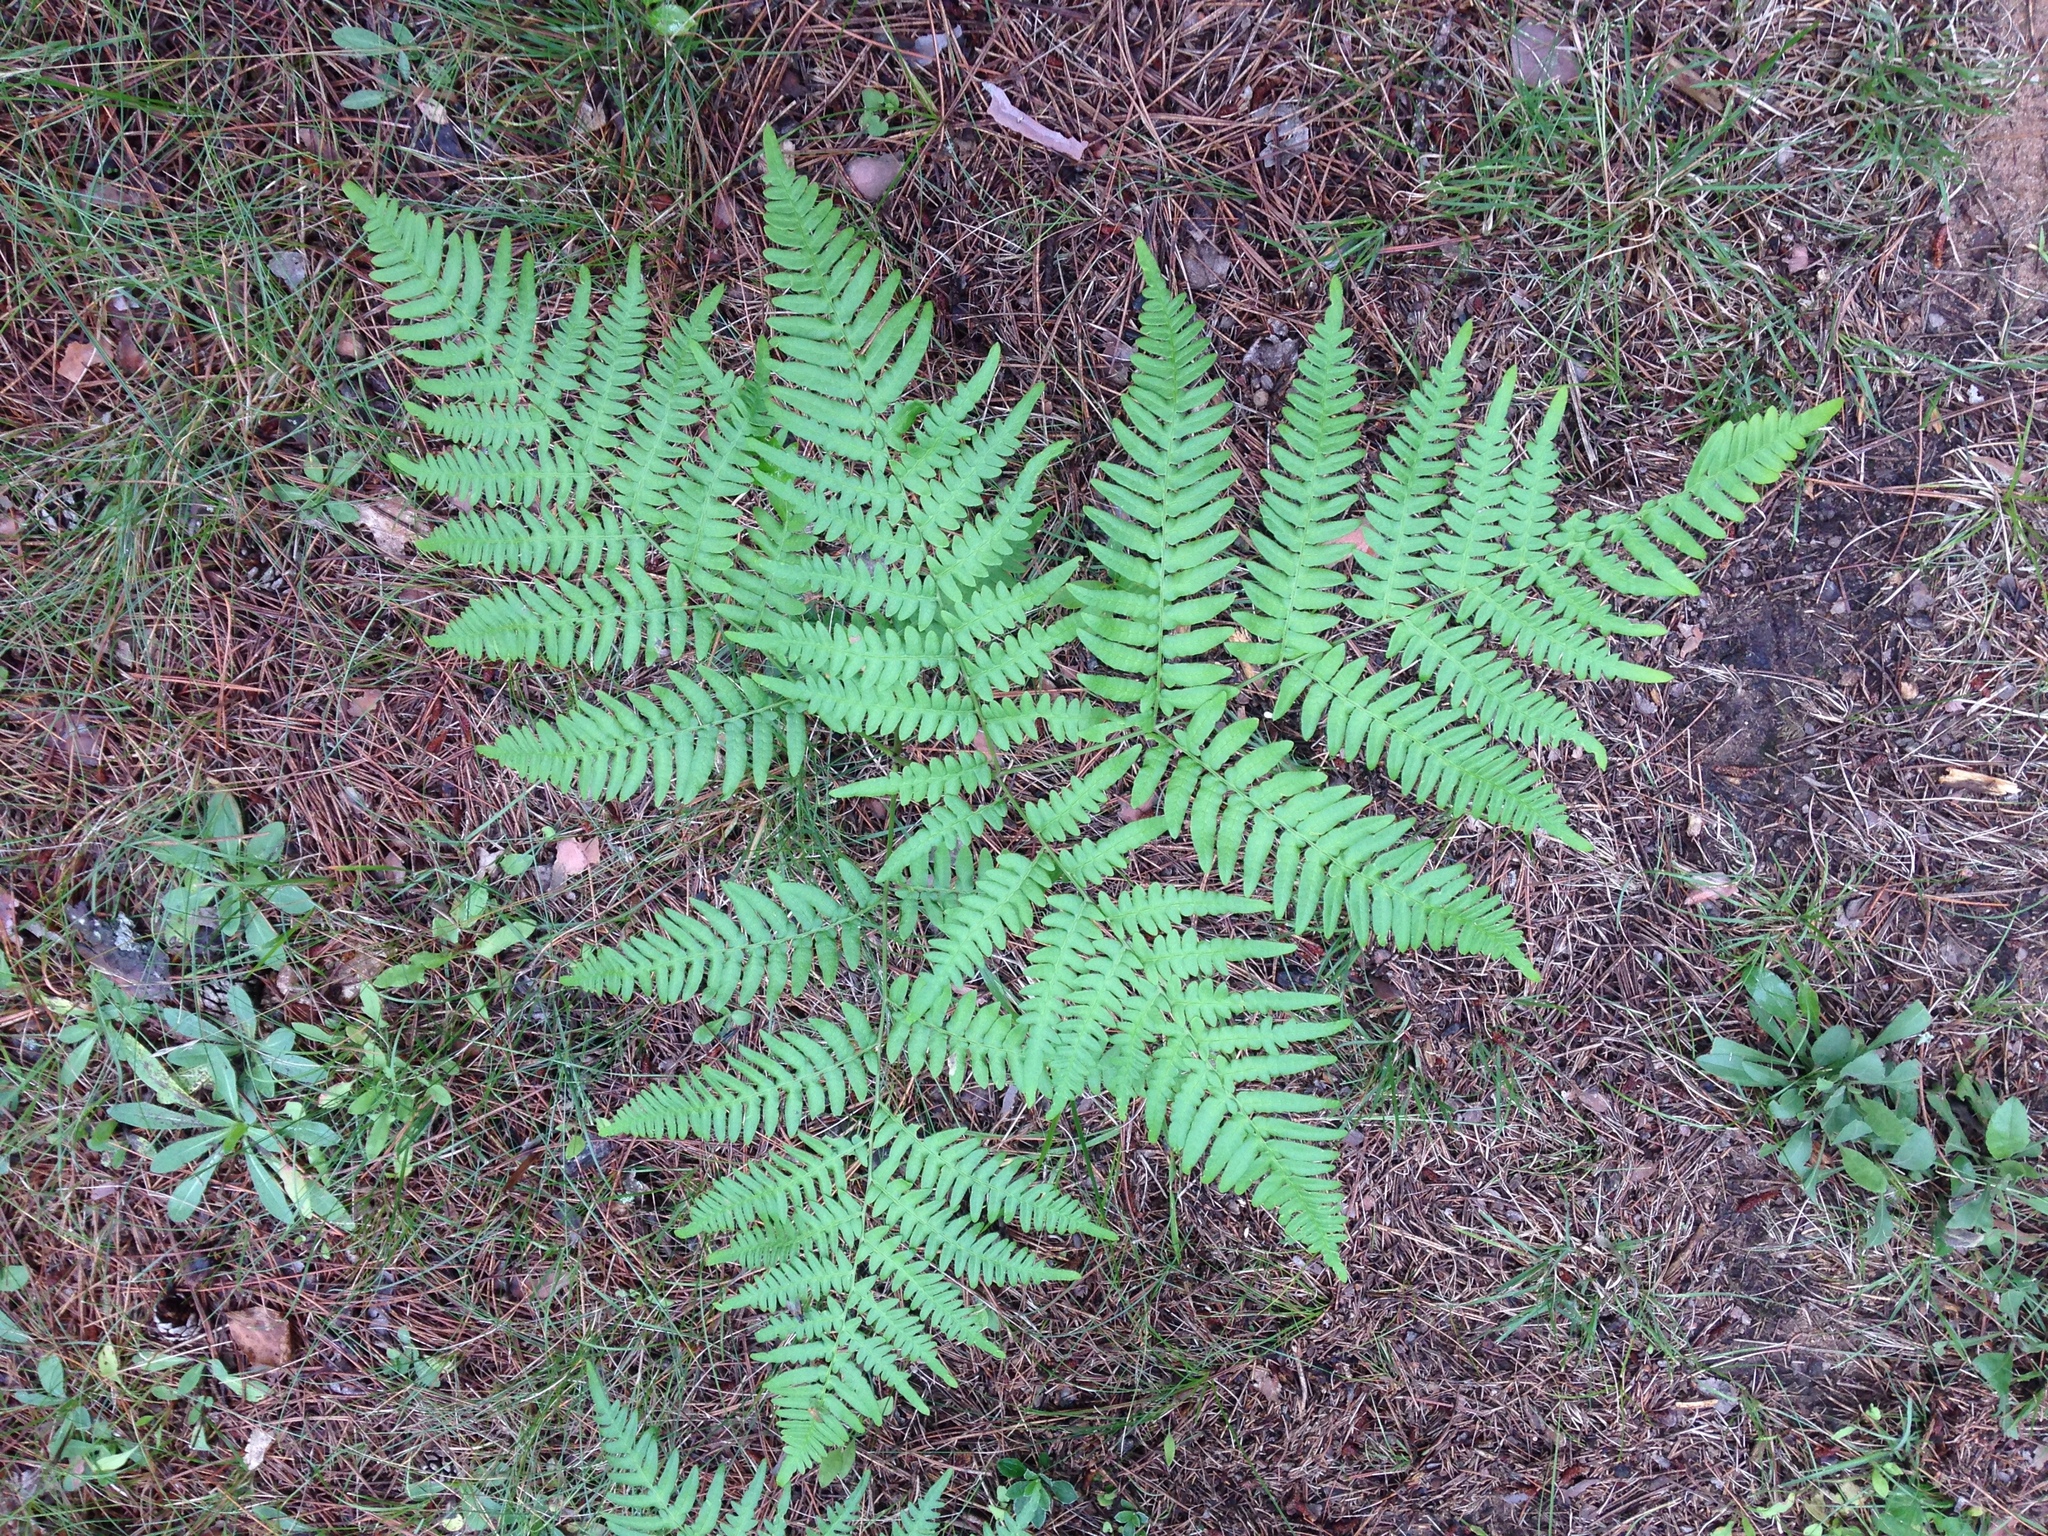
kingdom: Plantae
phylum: Tracheophyta
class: Polypodiopsida
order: Polypodiales
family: Dennstaedtiaceae
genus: Pteridium
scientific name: Pteridium aquilinum
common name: Bracken
